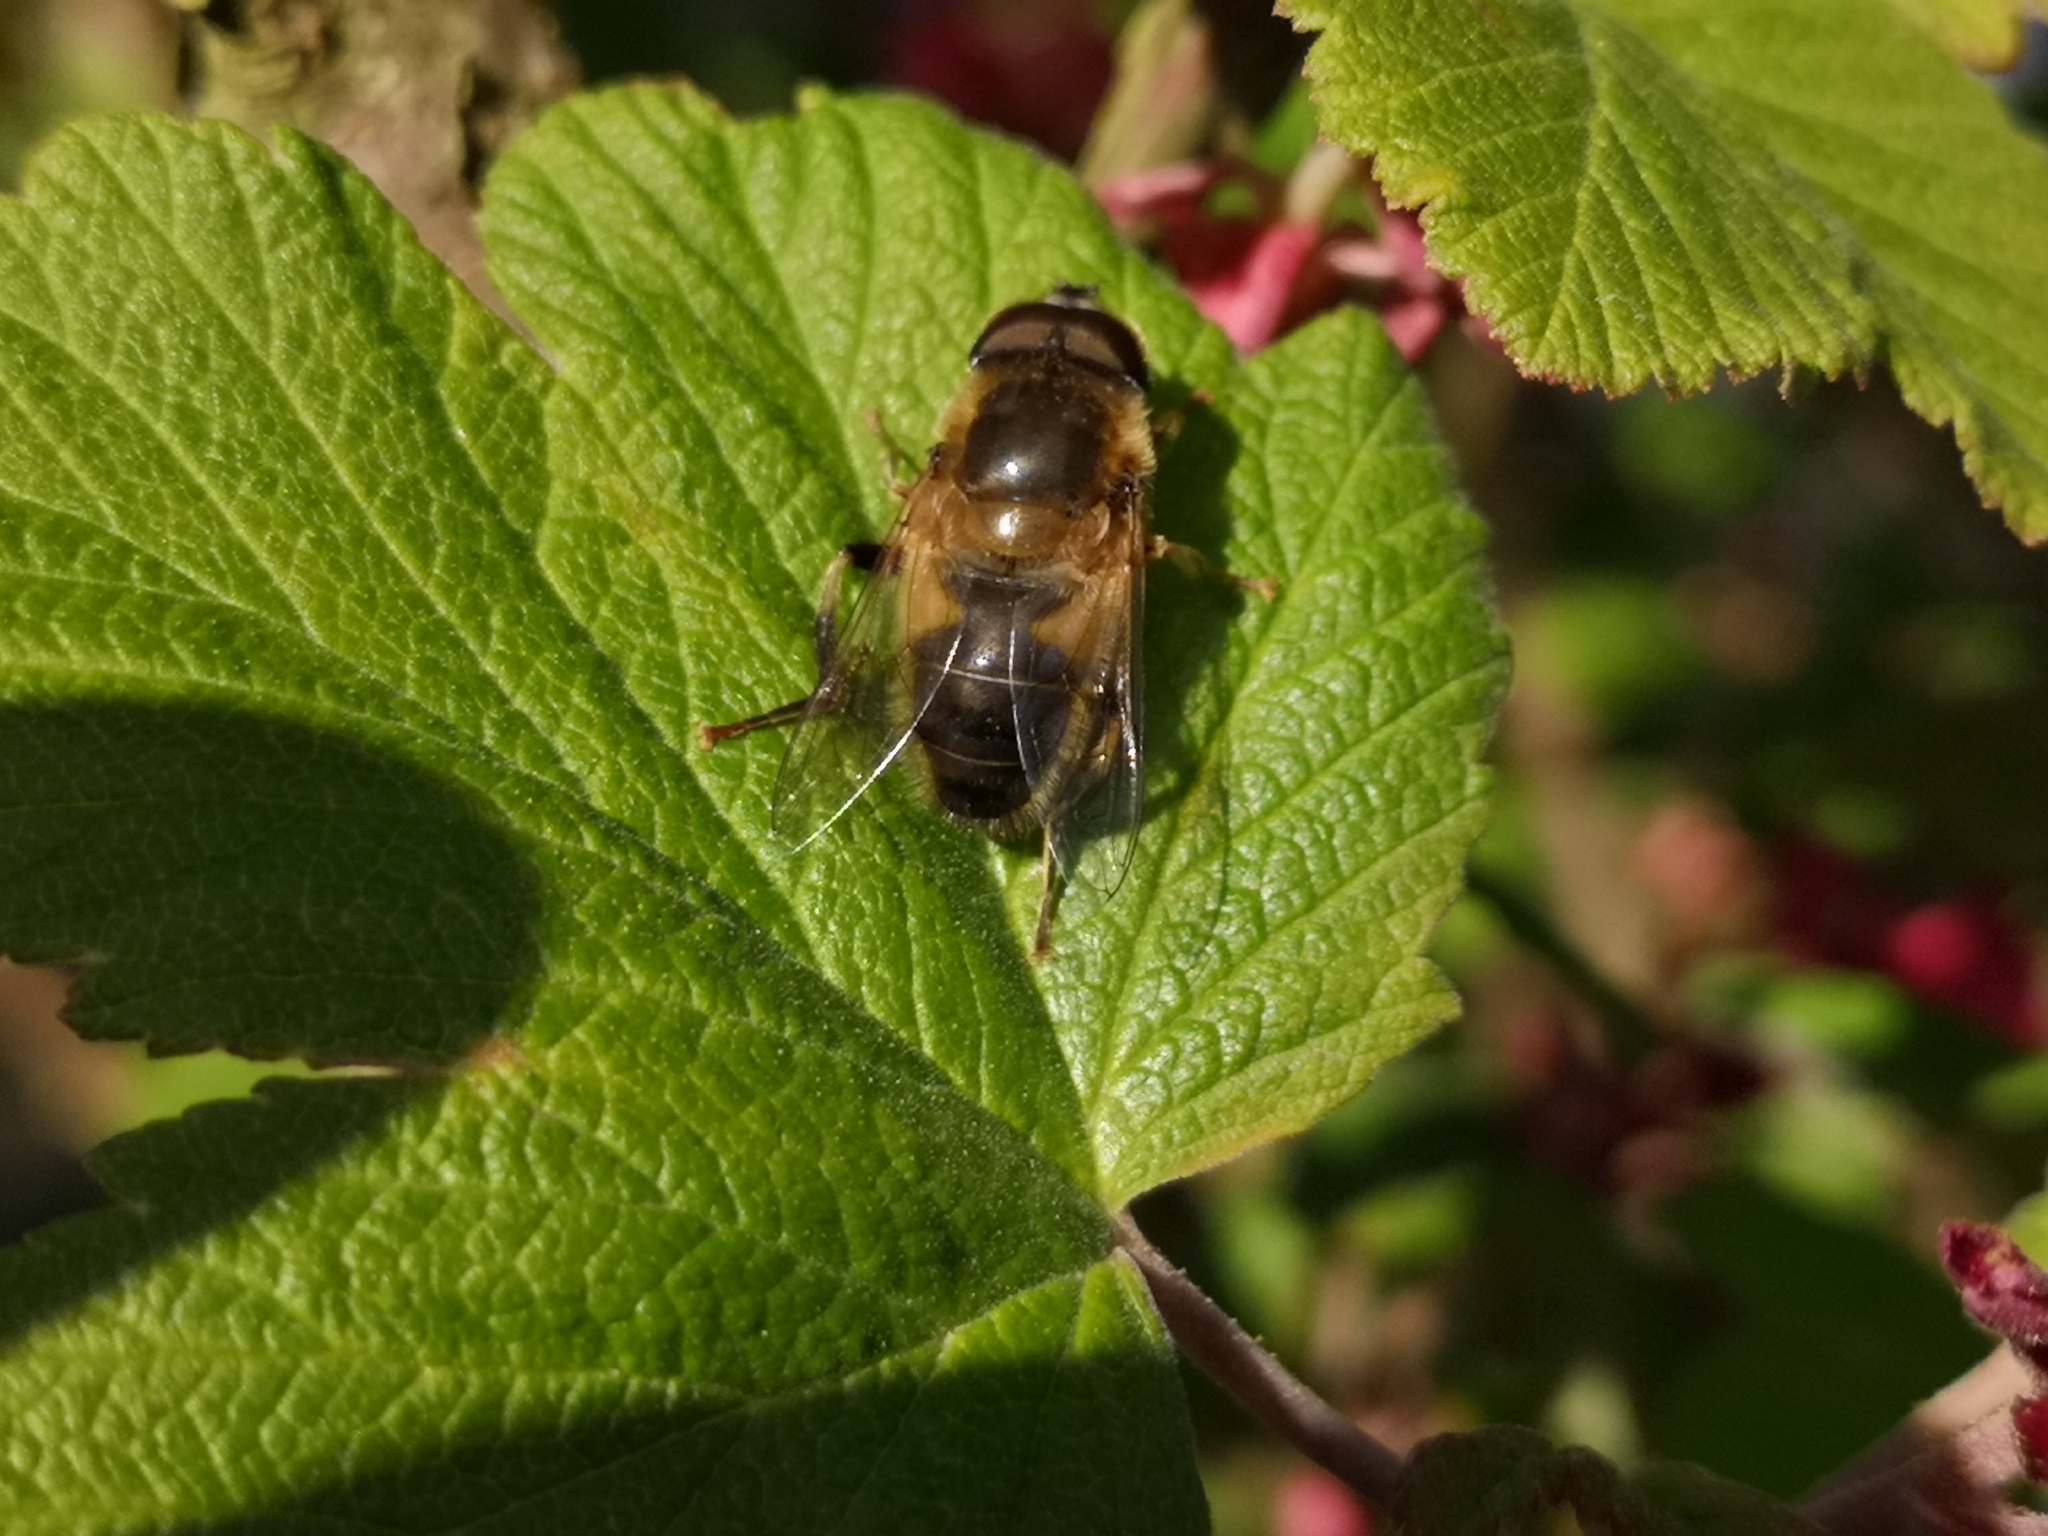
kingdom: Animalia
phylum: Arthropoda
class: Insecta
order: Diptera
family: Syrphidae
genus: Eristalis
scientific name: Eristalis pertinax
